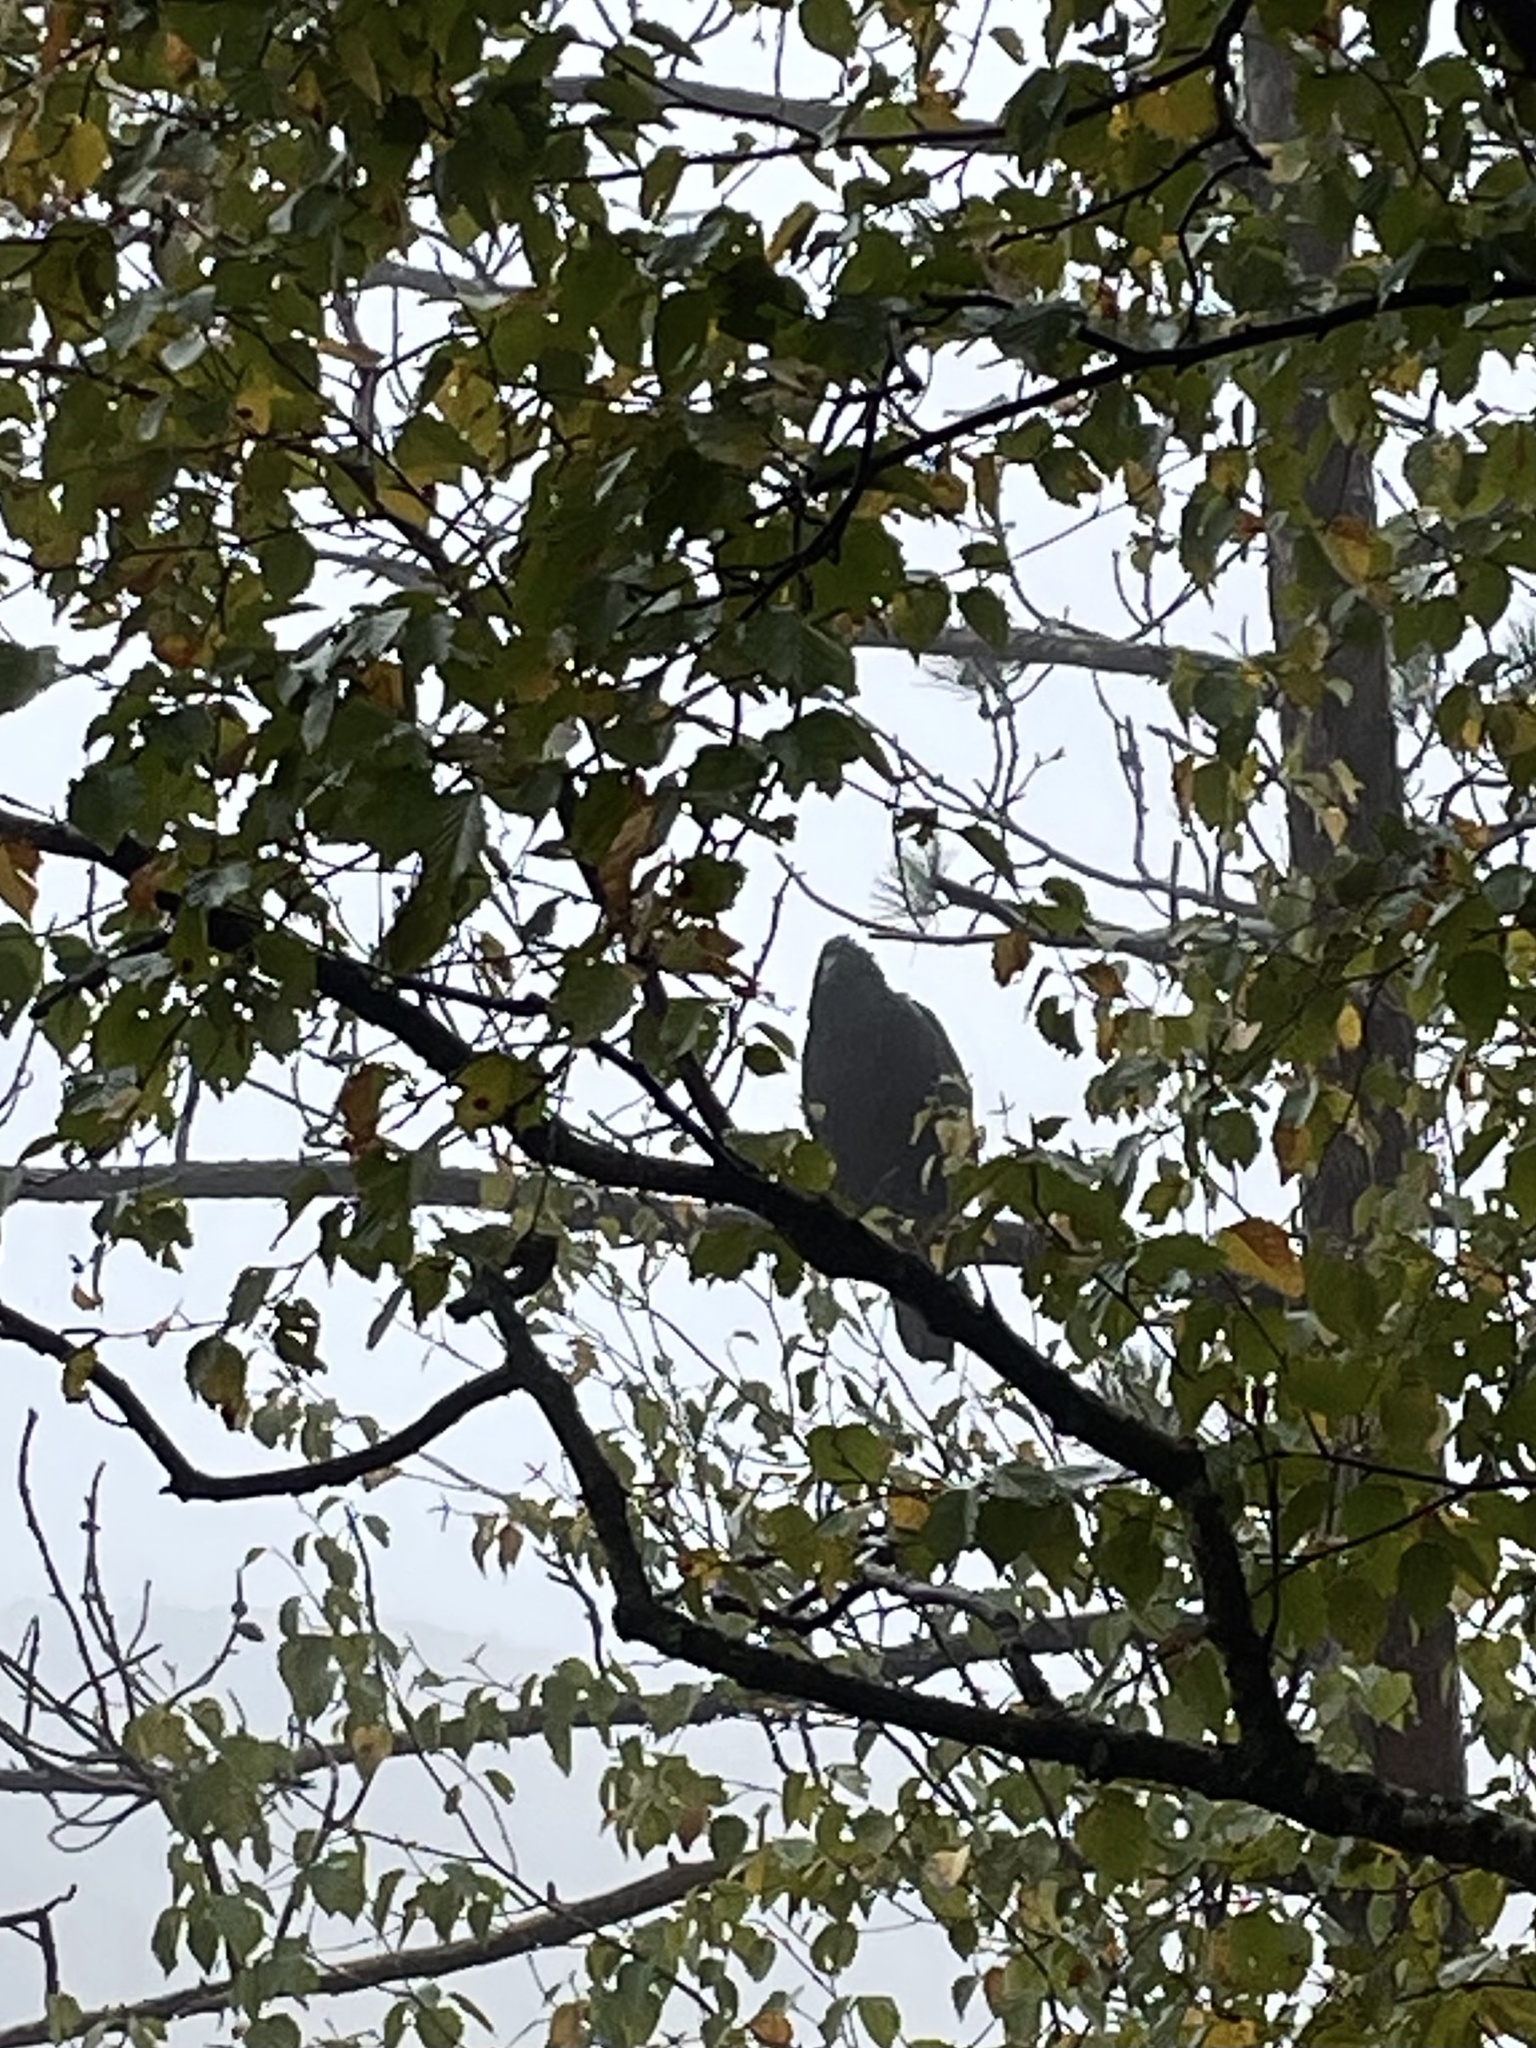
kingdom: Animalia
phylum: Chordata
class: Aves
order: Accipitriformes
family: Cathartidae
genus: Coragyps
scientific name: Coragyps atratus
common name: Black vulture
